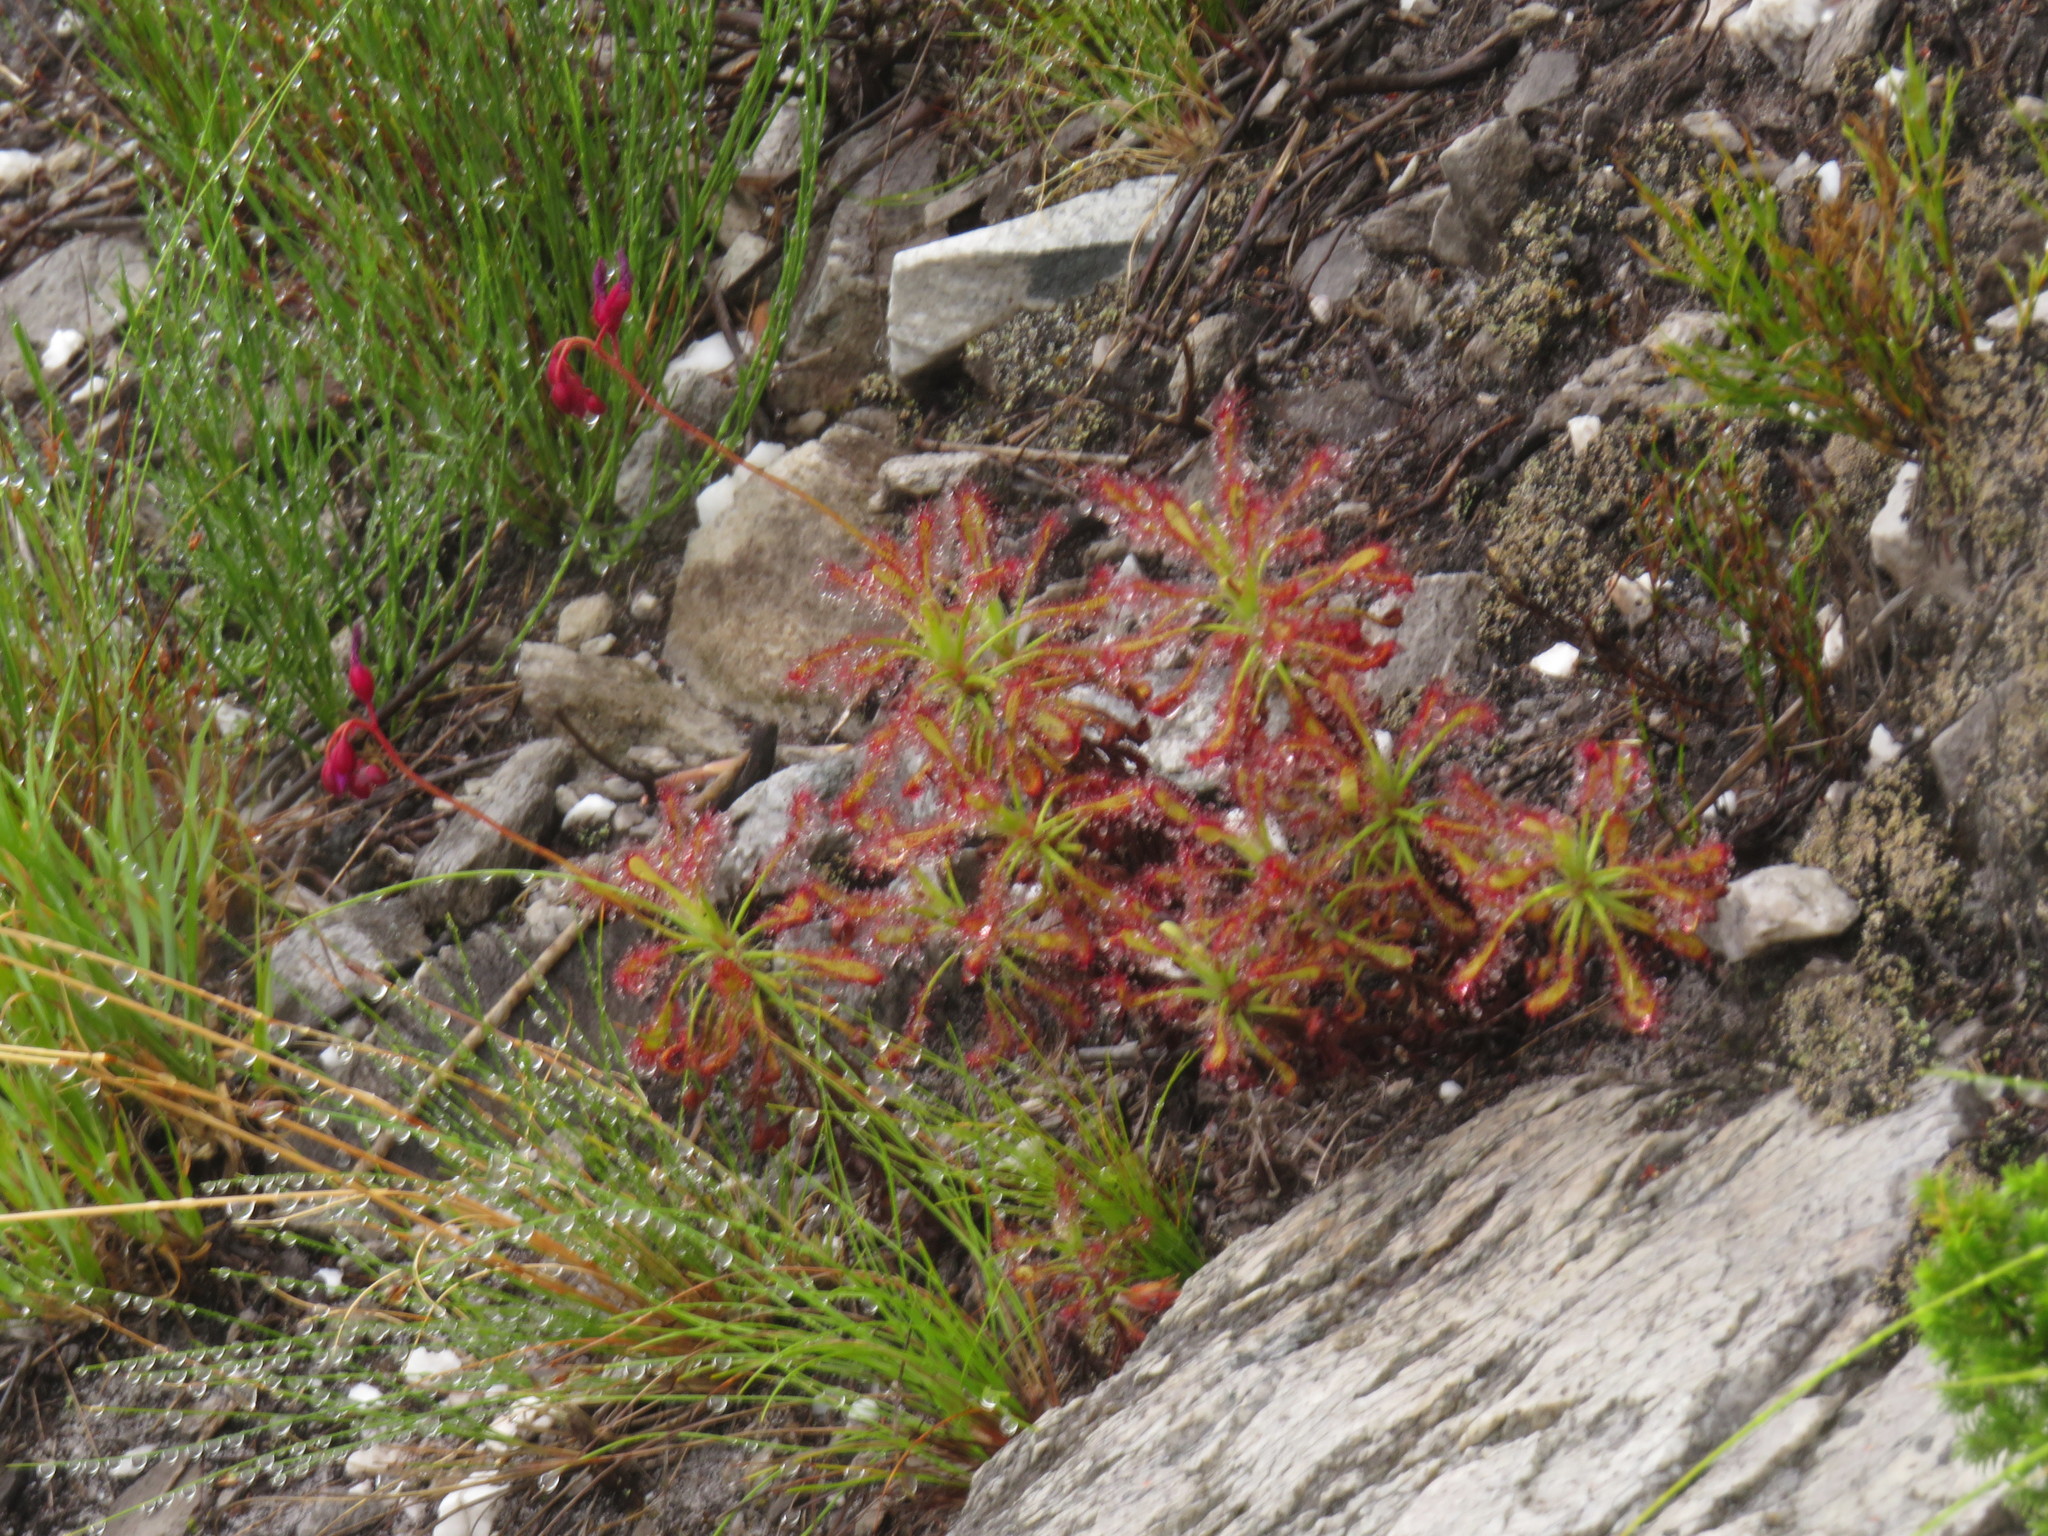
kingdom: Plantae
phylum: Tracheophyta
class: Magnoliopsida
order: Caryophyllales
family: Droseraceae
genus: Drosera
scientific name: Drosera glabripes
